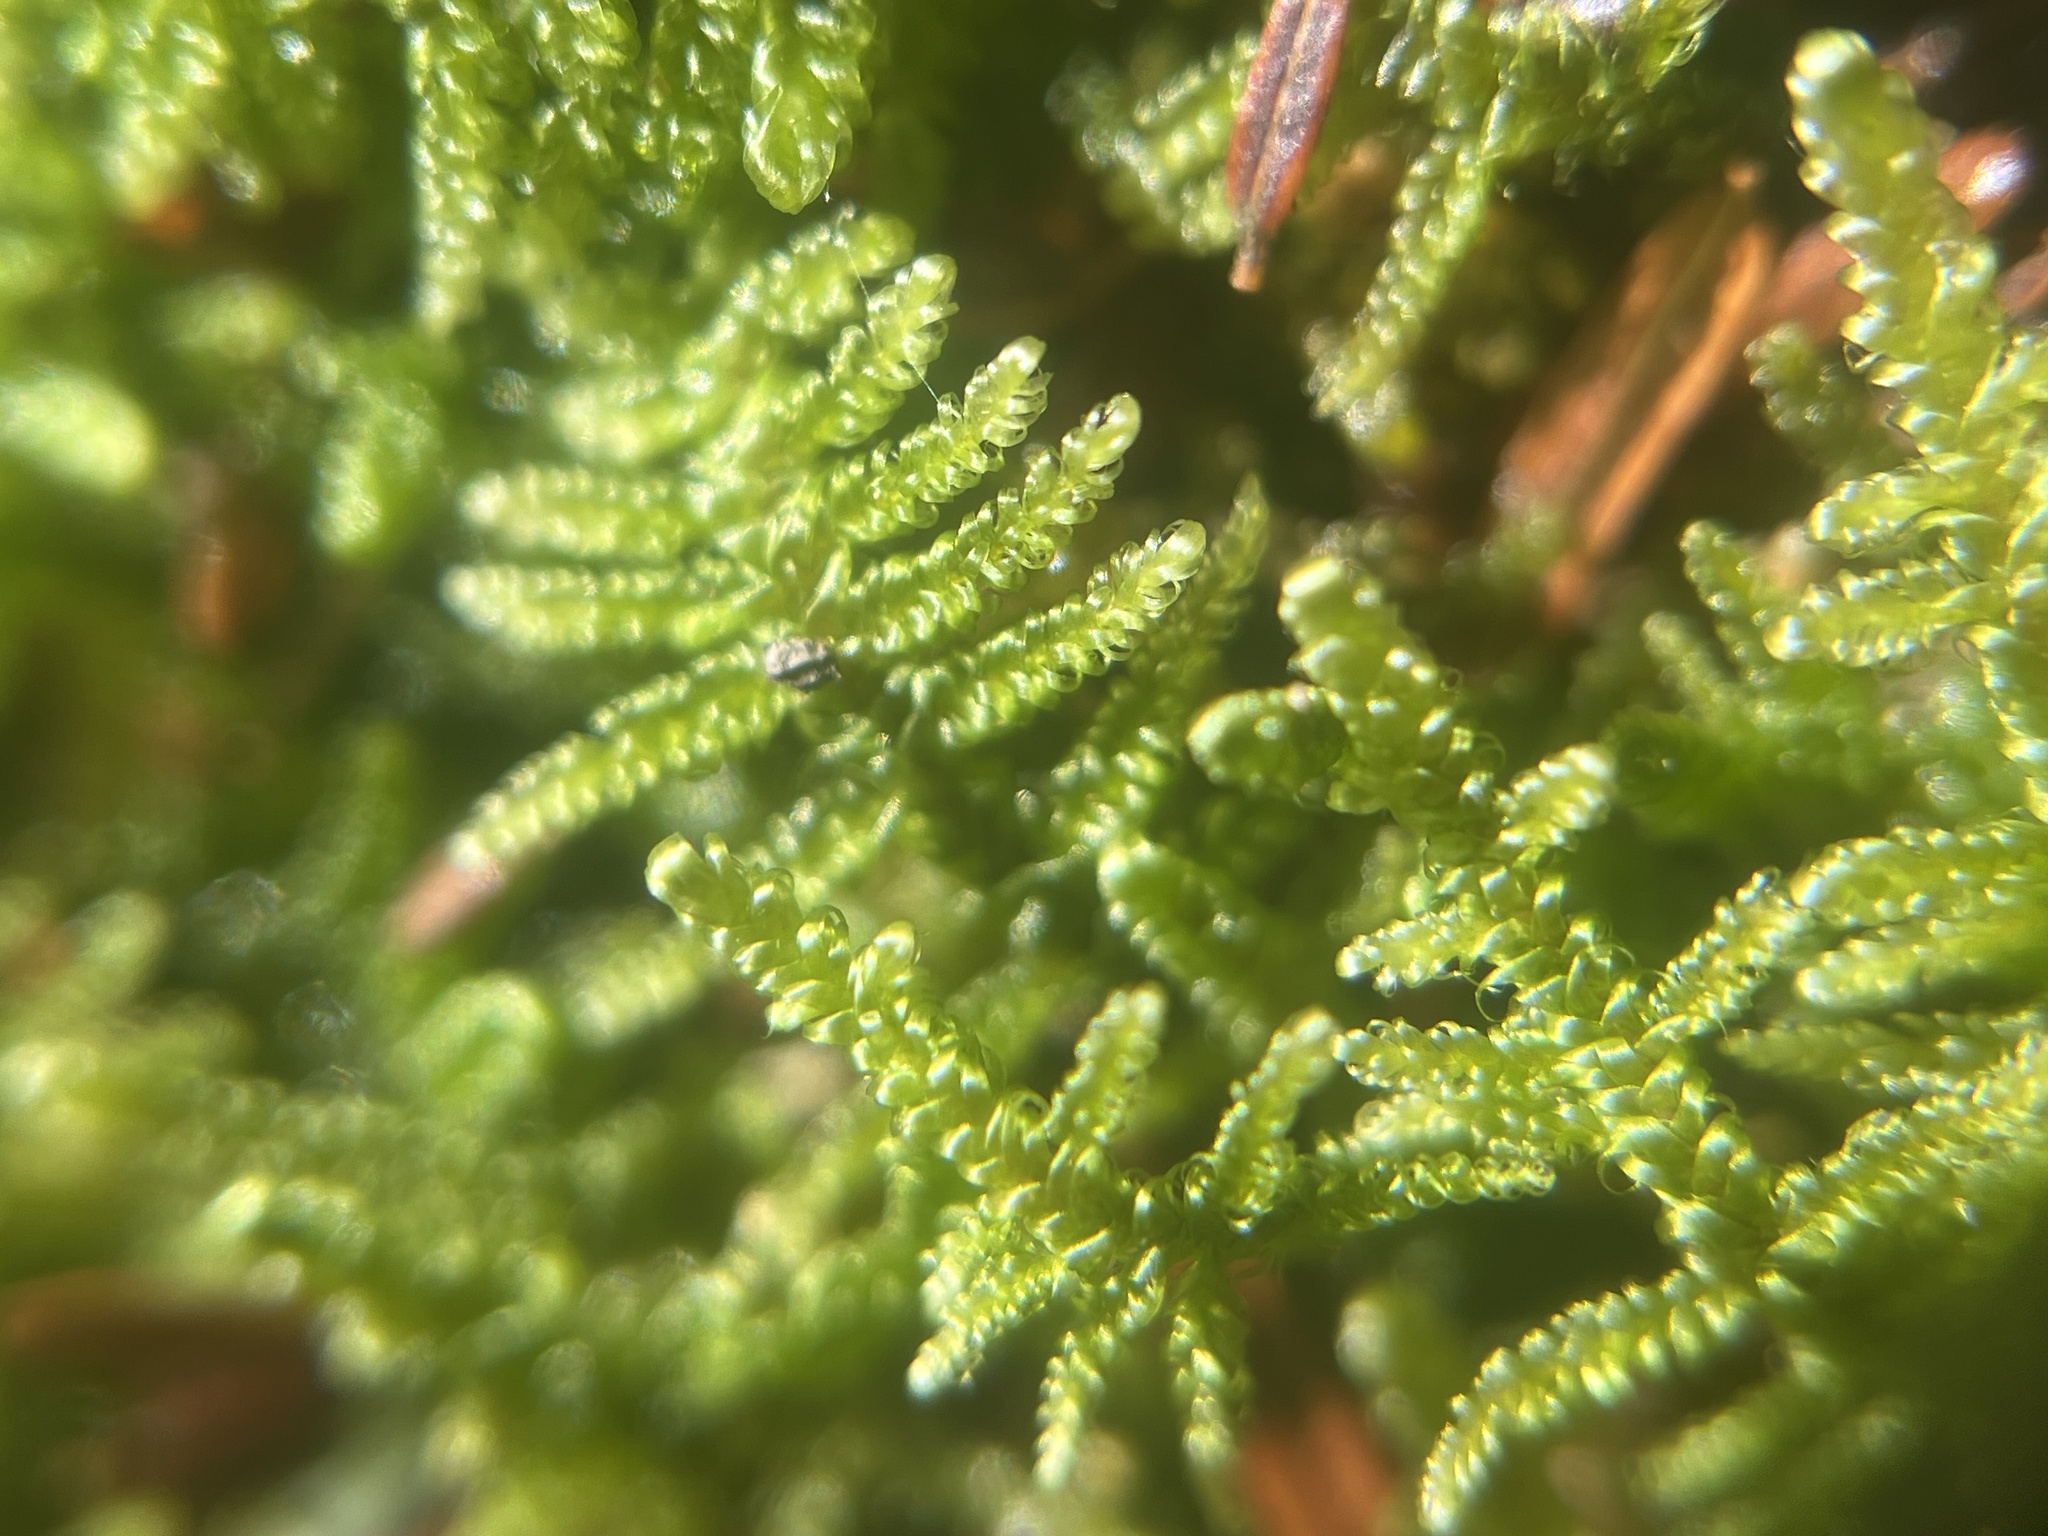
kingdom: Plantae
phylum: Bryophyta
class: Bryopsida
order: Hypnales
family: Callicladiaceae
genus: Callicladium
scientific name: Callicladium imponens
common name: Brocade moss
